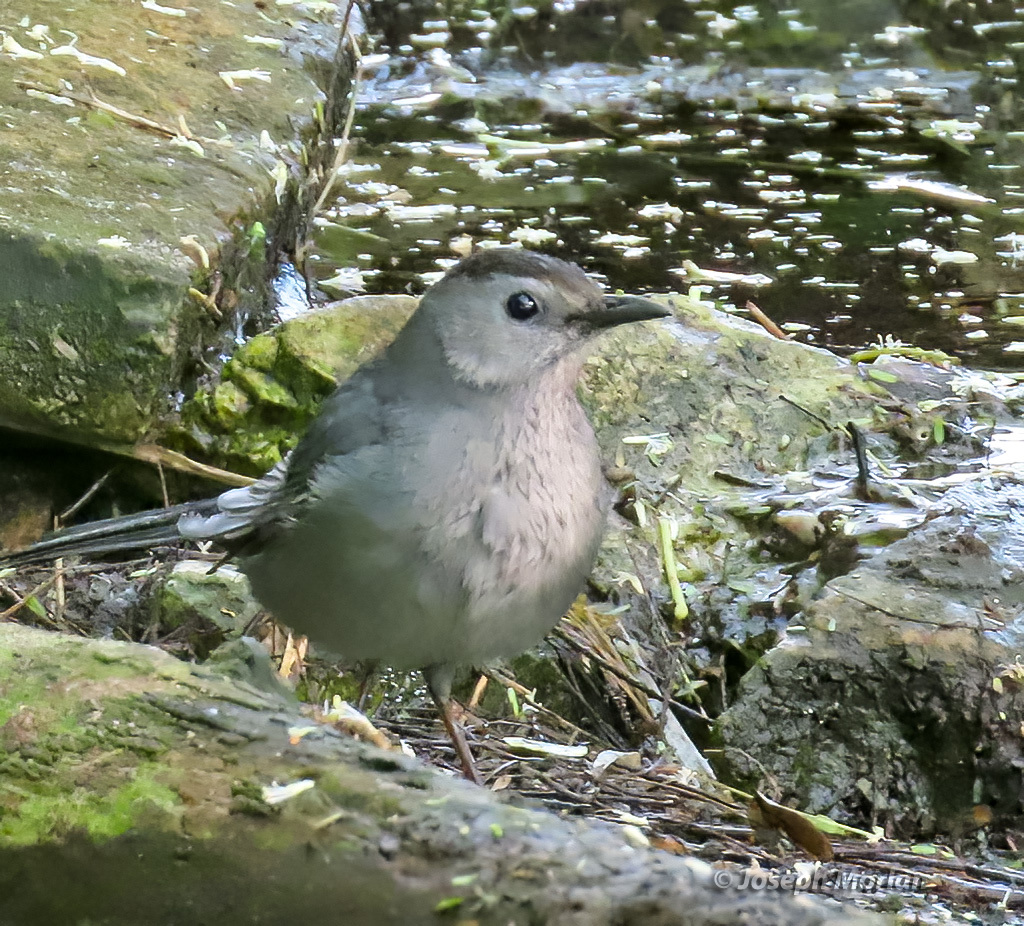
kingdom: Animalia
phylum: Chordata
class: Aves
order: Passeriformes
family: Mimidae
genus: Dumetella
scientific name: Dumetella carolinensis
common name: Gray catbird
